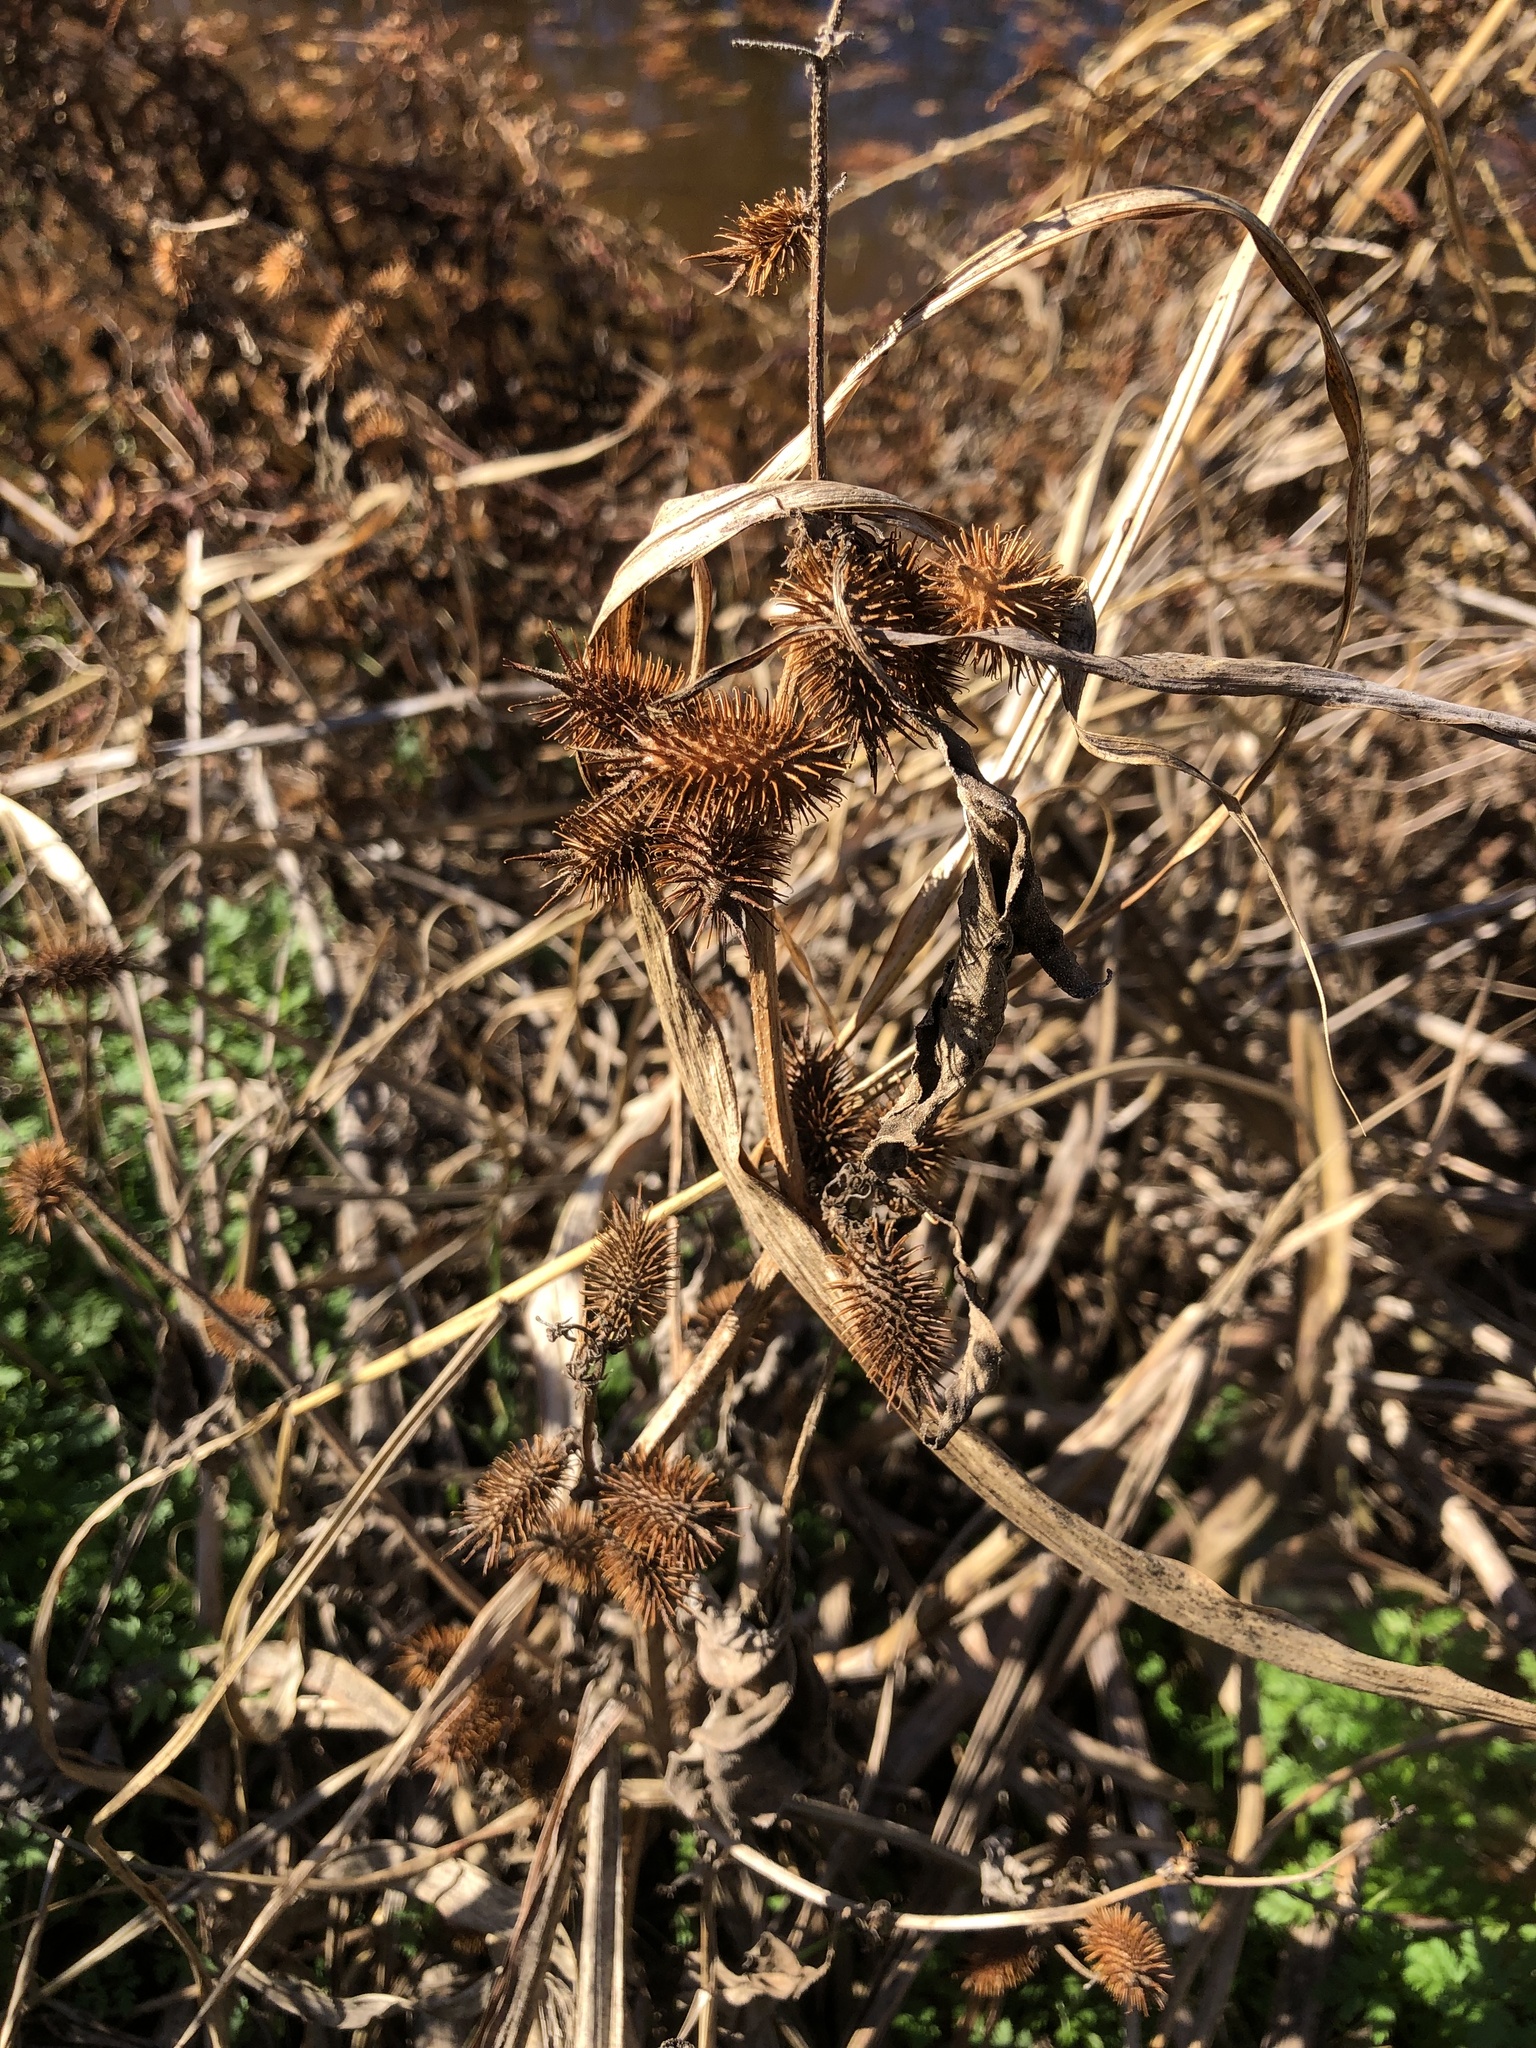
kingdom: Plantae
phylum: Tracheophyta
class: Magnoliopsida
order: Asterales
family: Asteraceae
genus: Xanthium
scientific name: Xanthium strumarium
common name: Rough cocklebur
